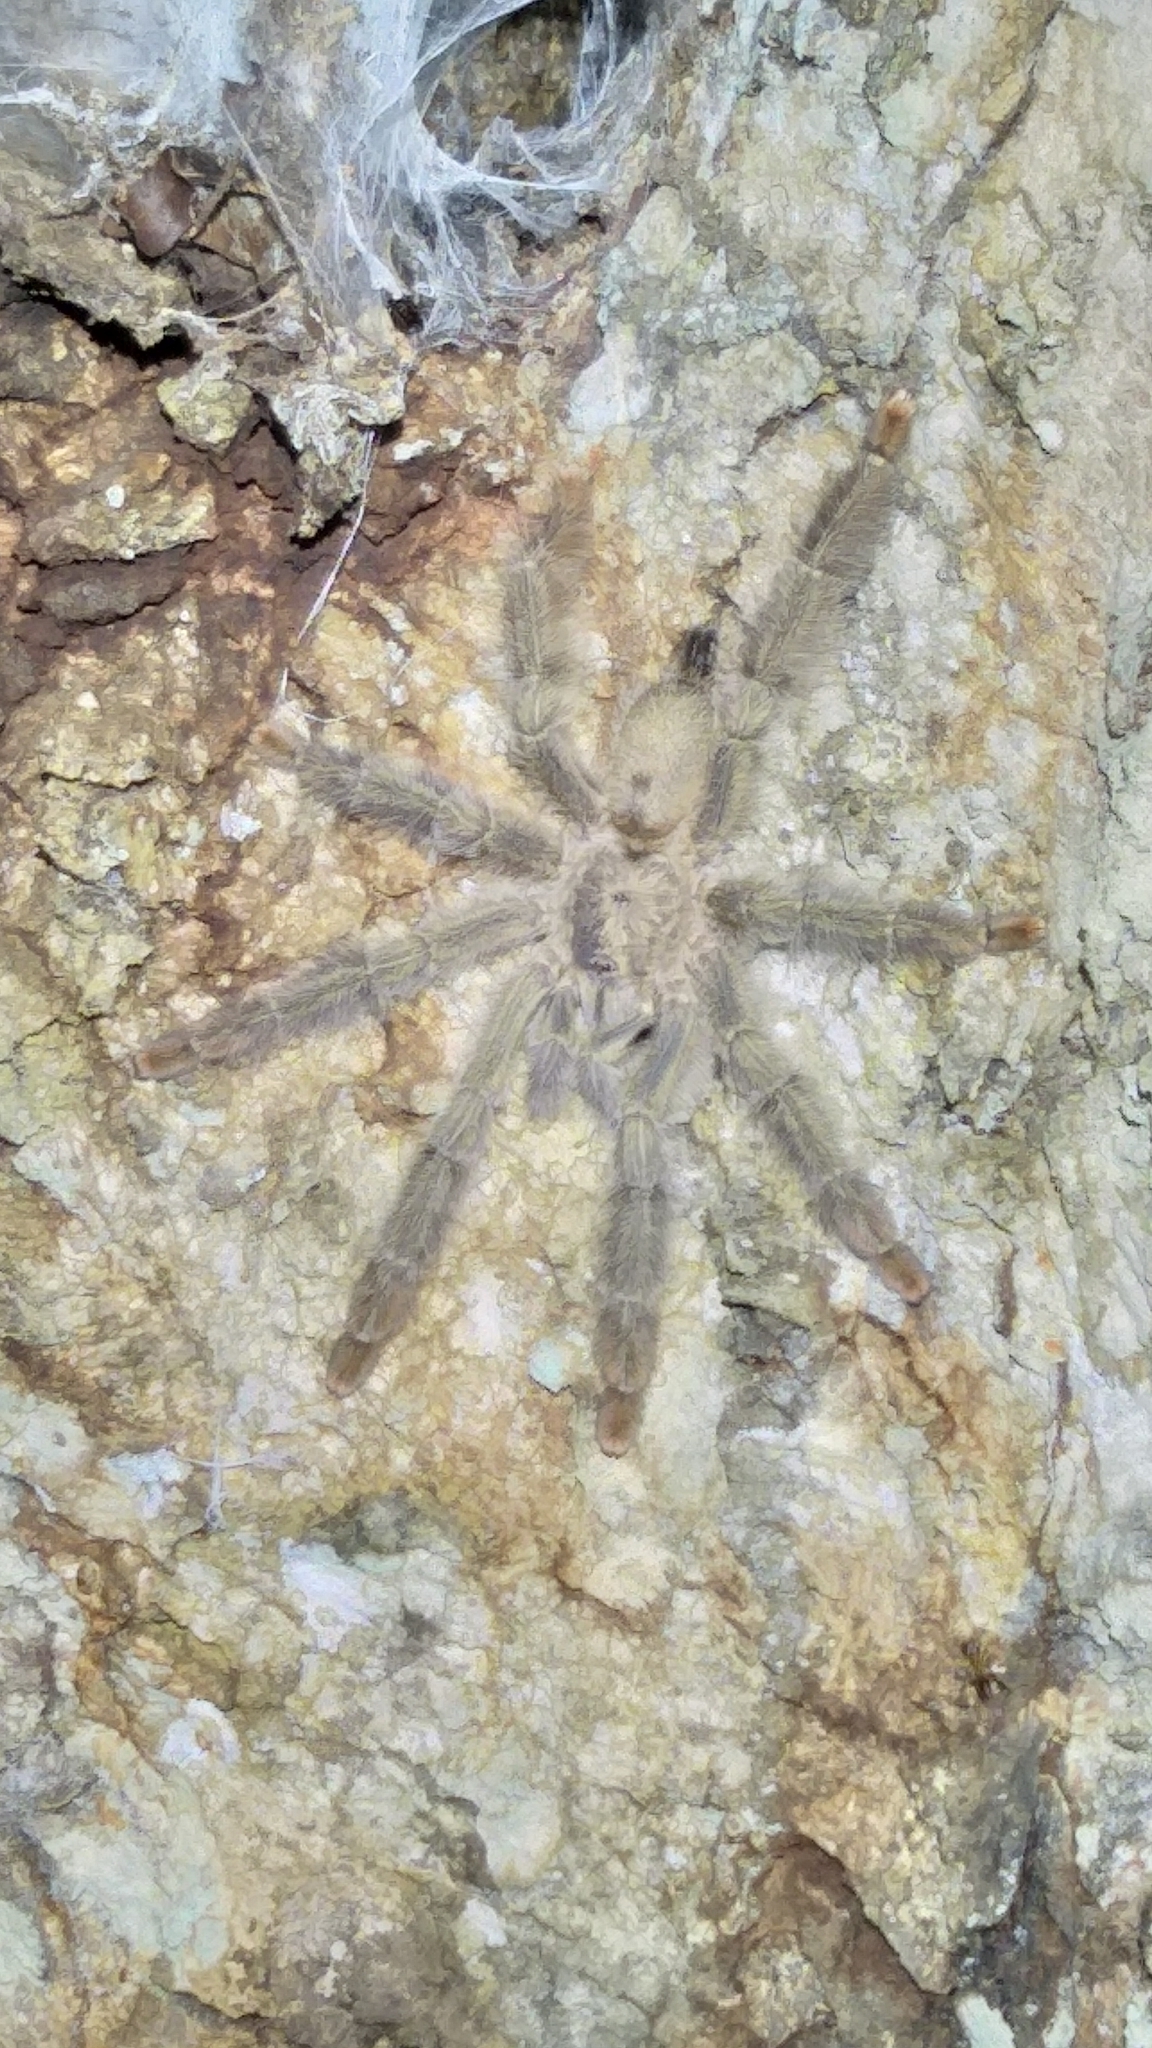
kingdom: Animalia
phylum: Arthropoda
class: Arachnida
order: Araneae
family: Theraphosidae
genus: Psalmopoeus
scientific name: Psalmopoeus pulcher
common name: Tarantula spiders
